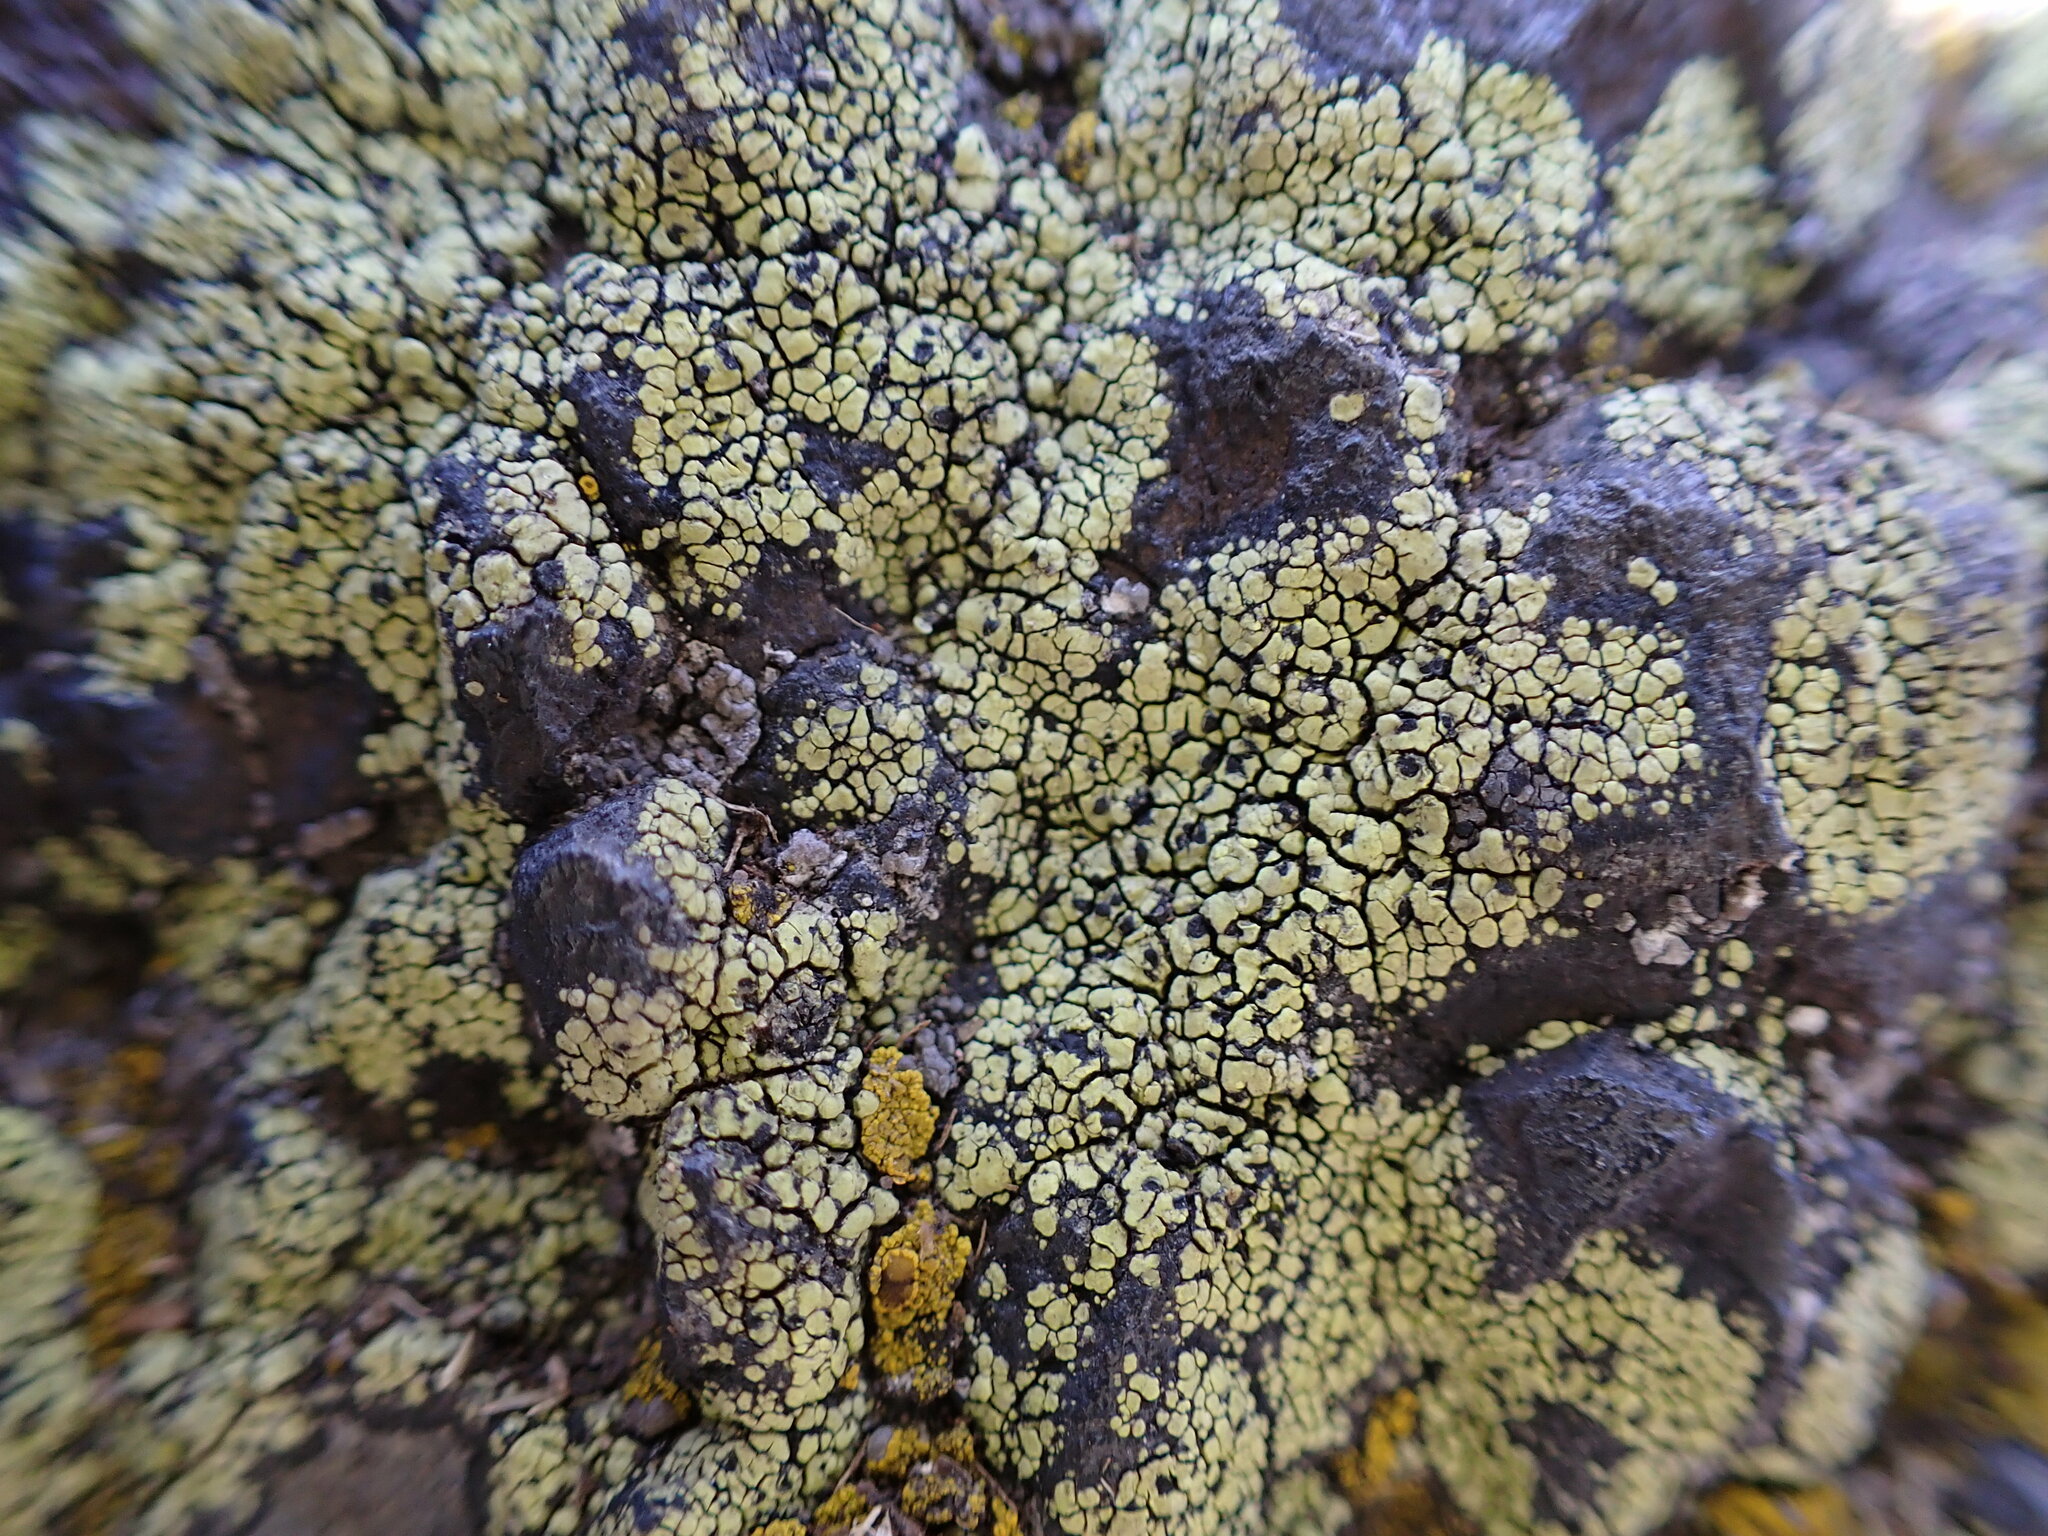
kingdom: Fungi
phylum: Ascomycota
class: Lecanoromycetes
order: Rhizocarpales
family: Rhizocarpaceae
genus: Rhizocarpon
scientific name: Rhizocarpon lecanorinum
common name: Crescent map lichen
